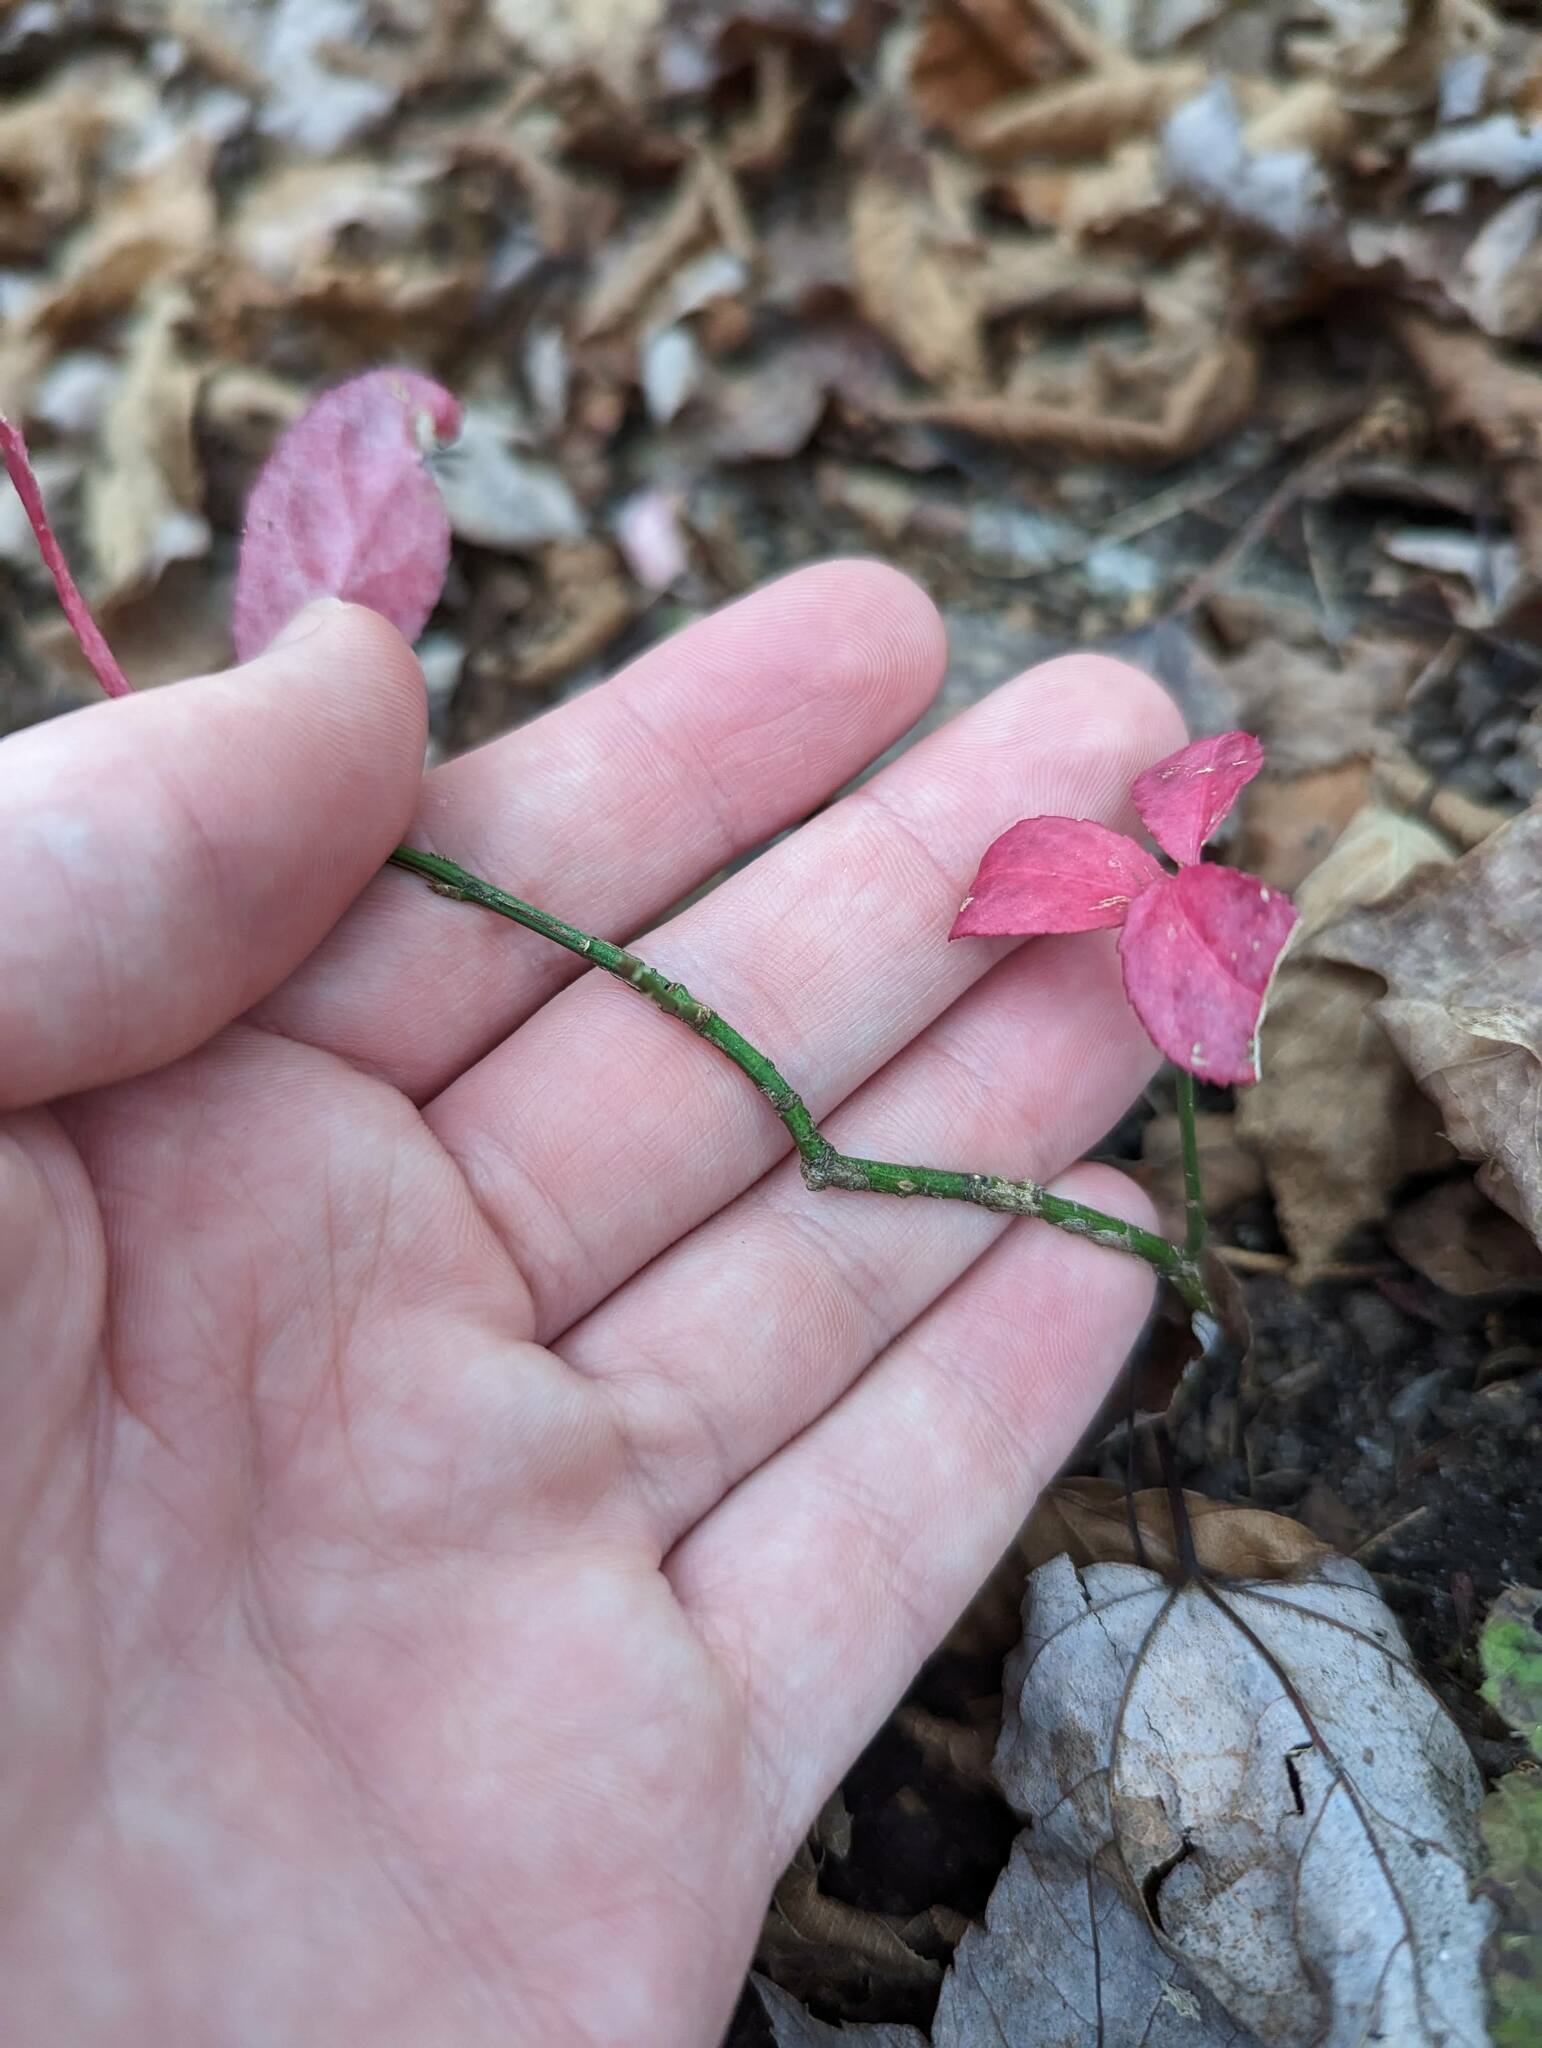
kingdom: Plantae
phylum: Tracheophyta
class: Magnoliopsida
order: Celastrales
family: Celastraceae
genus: Euonymus
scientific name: Euonymus alatus
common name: Winged euonymus
